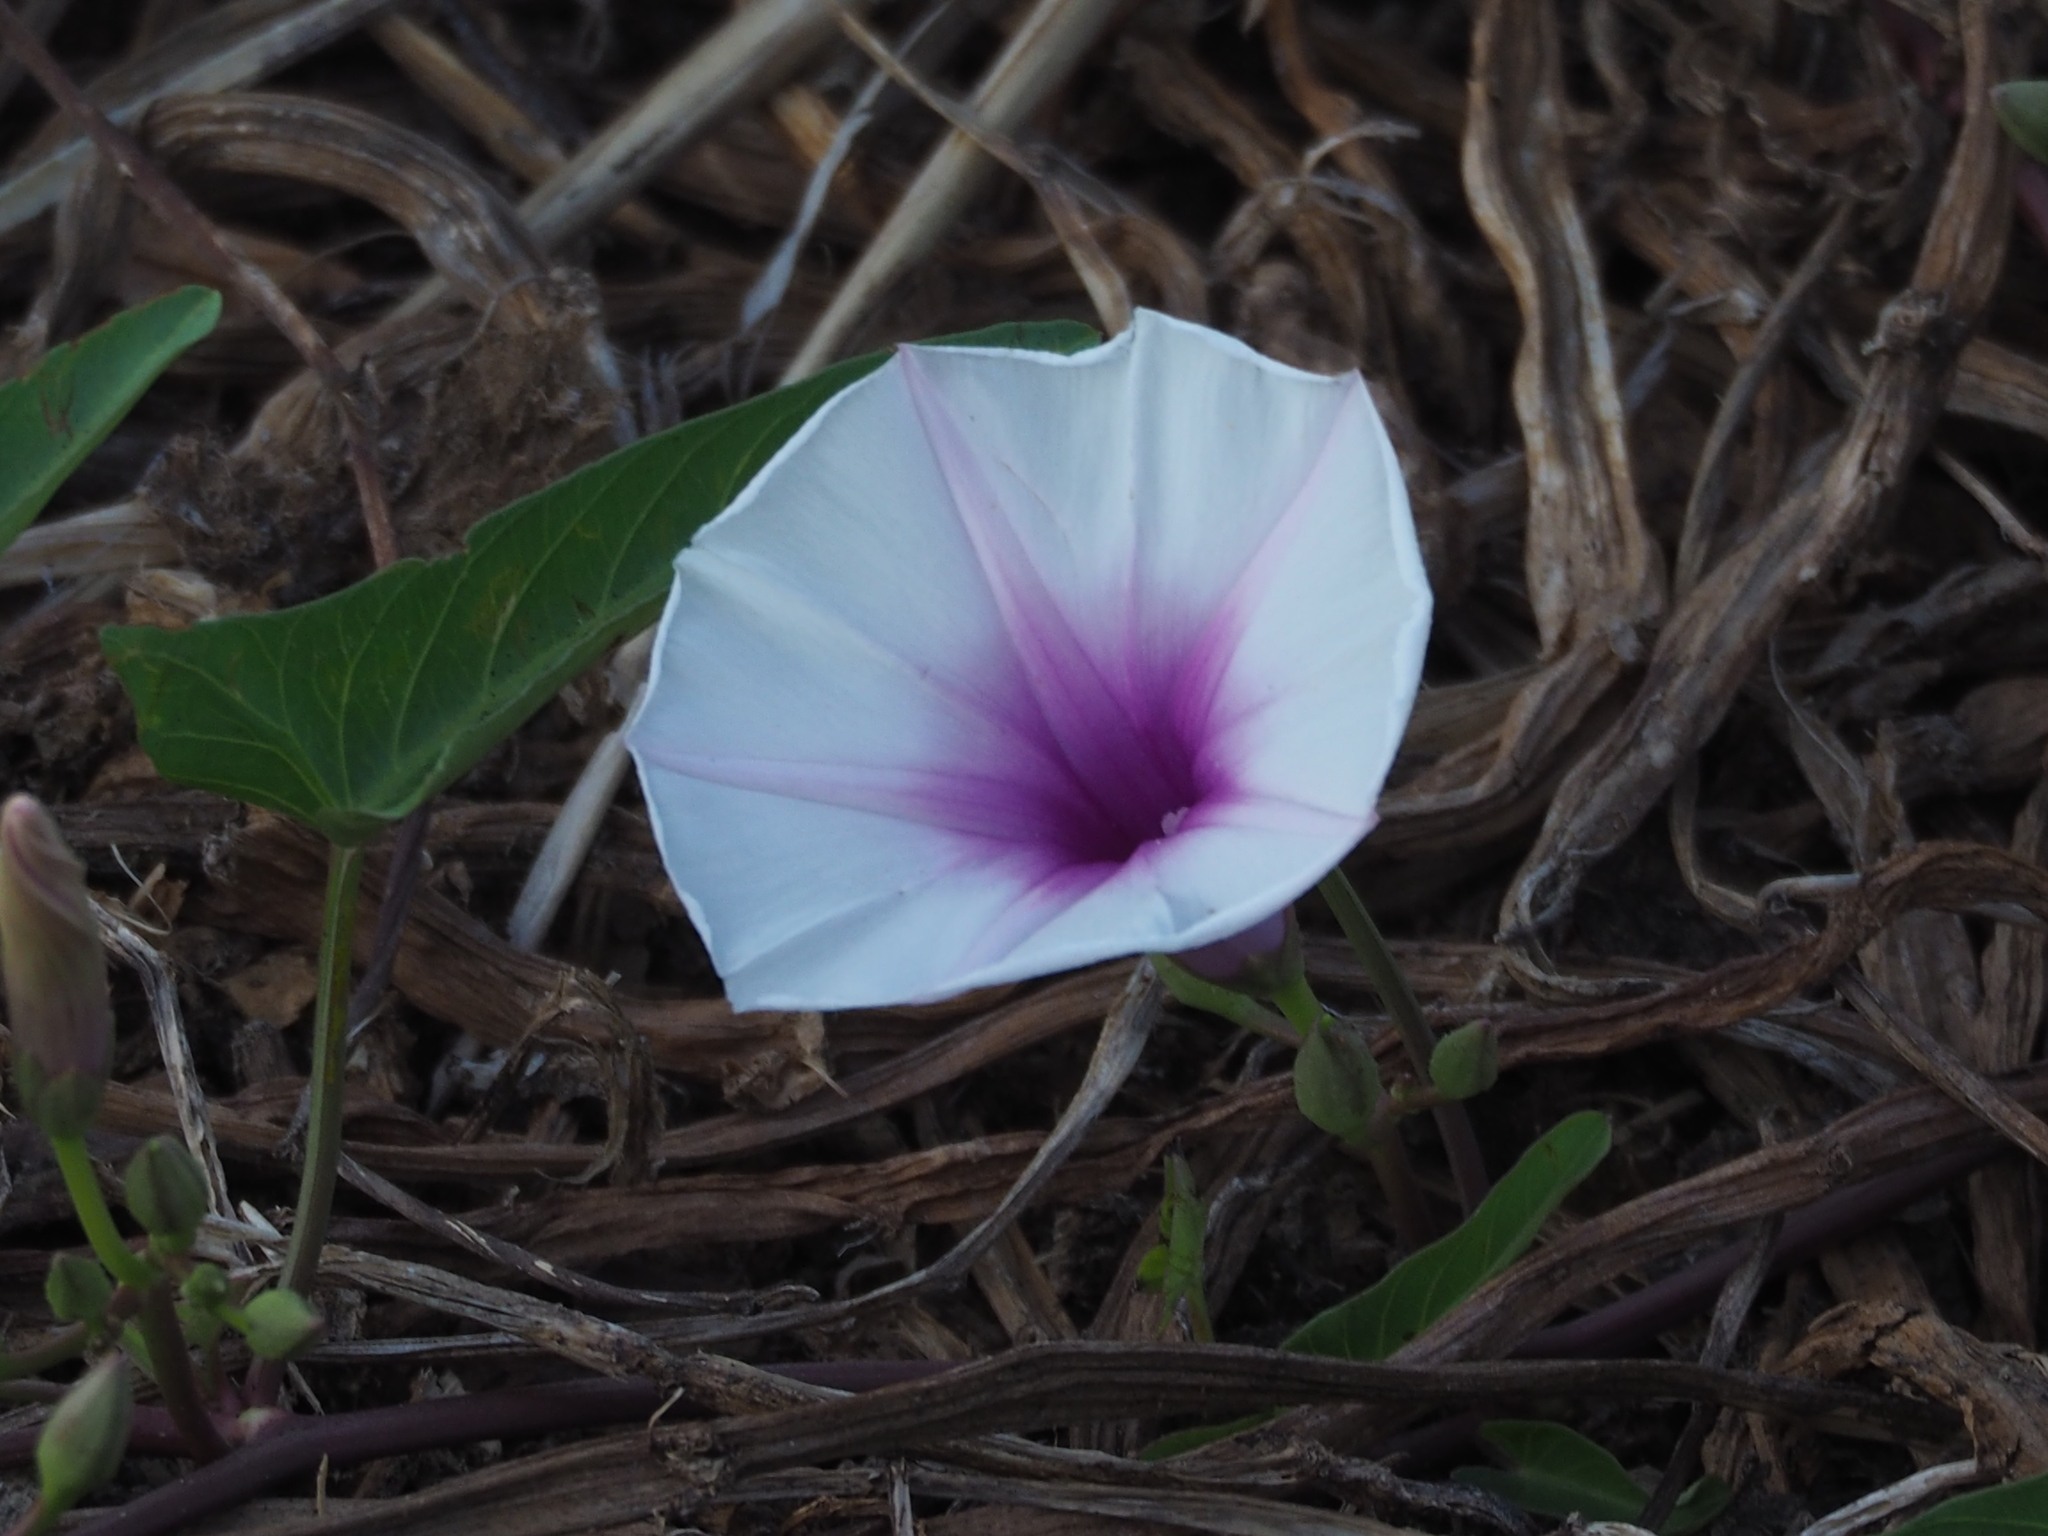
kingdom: Plantae
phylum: Tracheophyta
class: Magnoliopsida
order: Solanales
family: Convolvulaceae
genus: Ipomoea
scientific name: Ipomoea aquatica
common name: Swamp morning-glory
